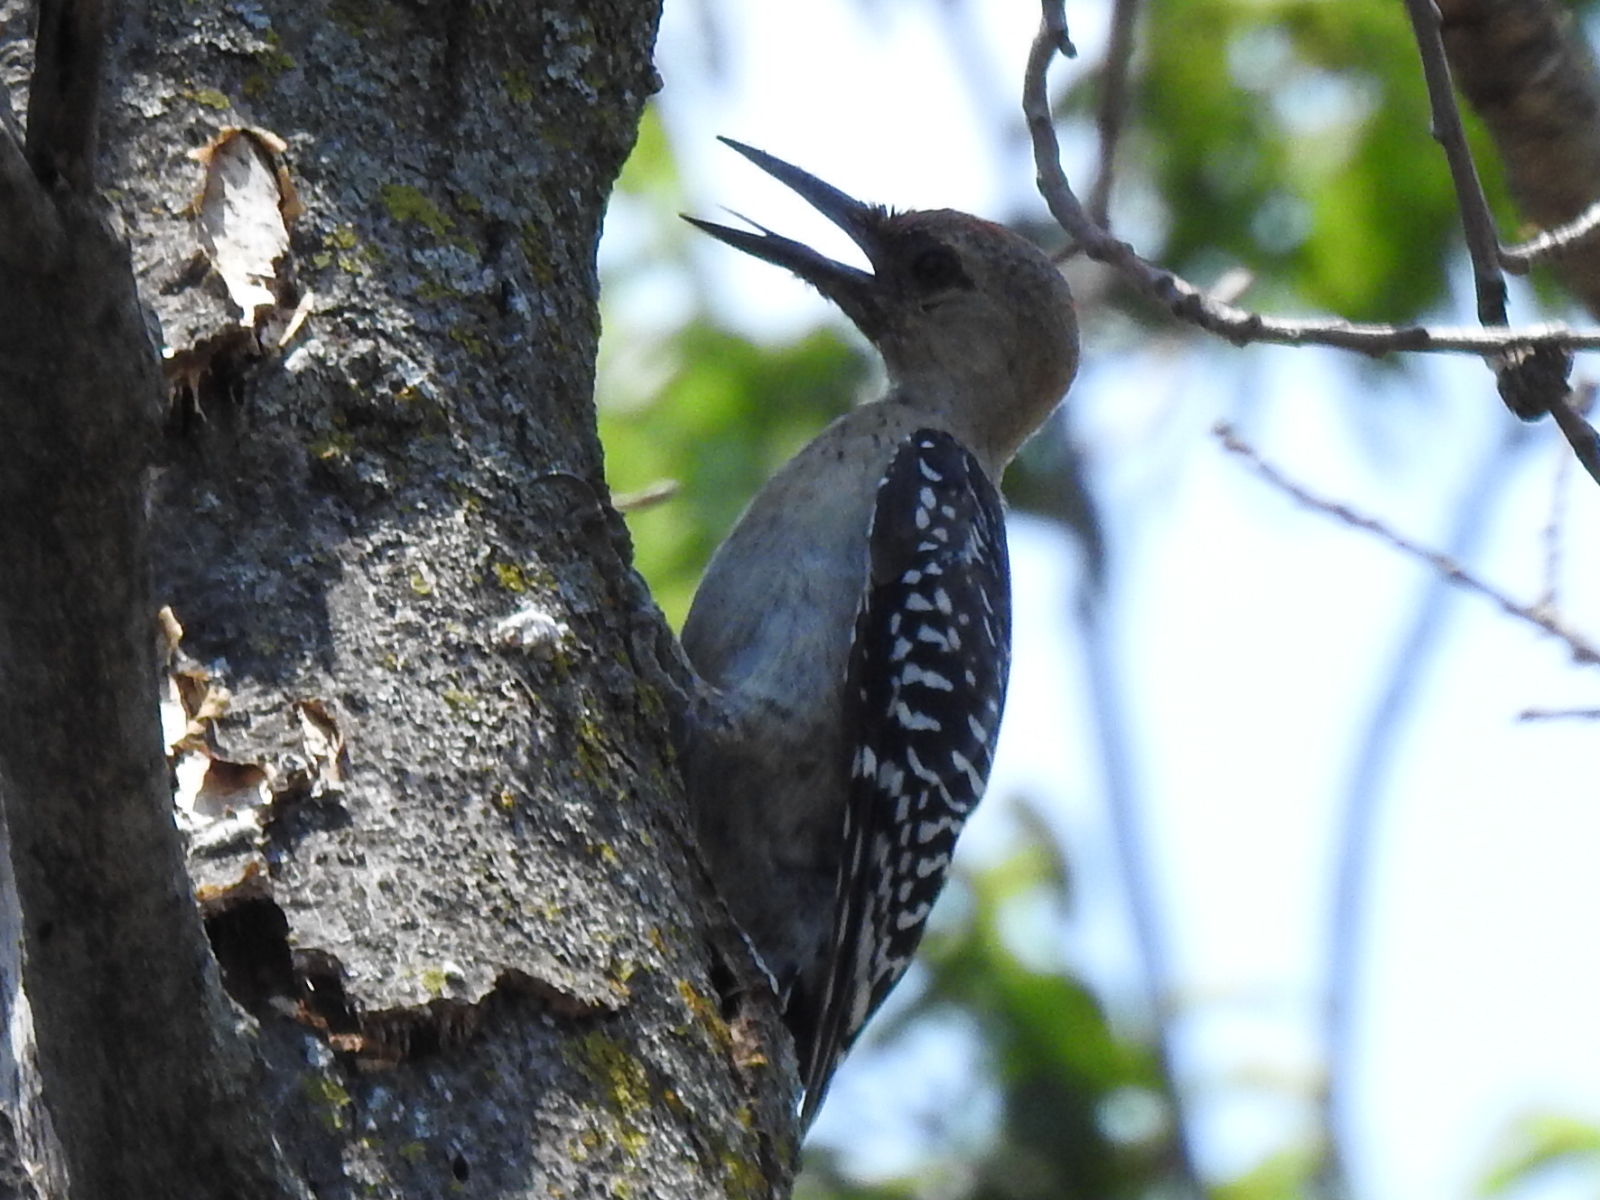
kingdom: Animalia
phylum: Chordata
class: Aves
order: Piciformes
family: Picidae
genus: Melanerpes
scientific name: Melanerpes carolinus
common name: Red-bellied woodpecker
